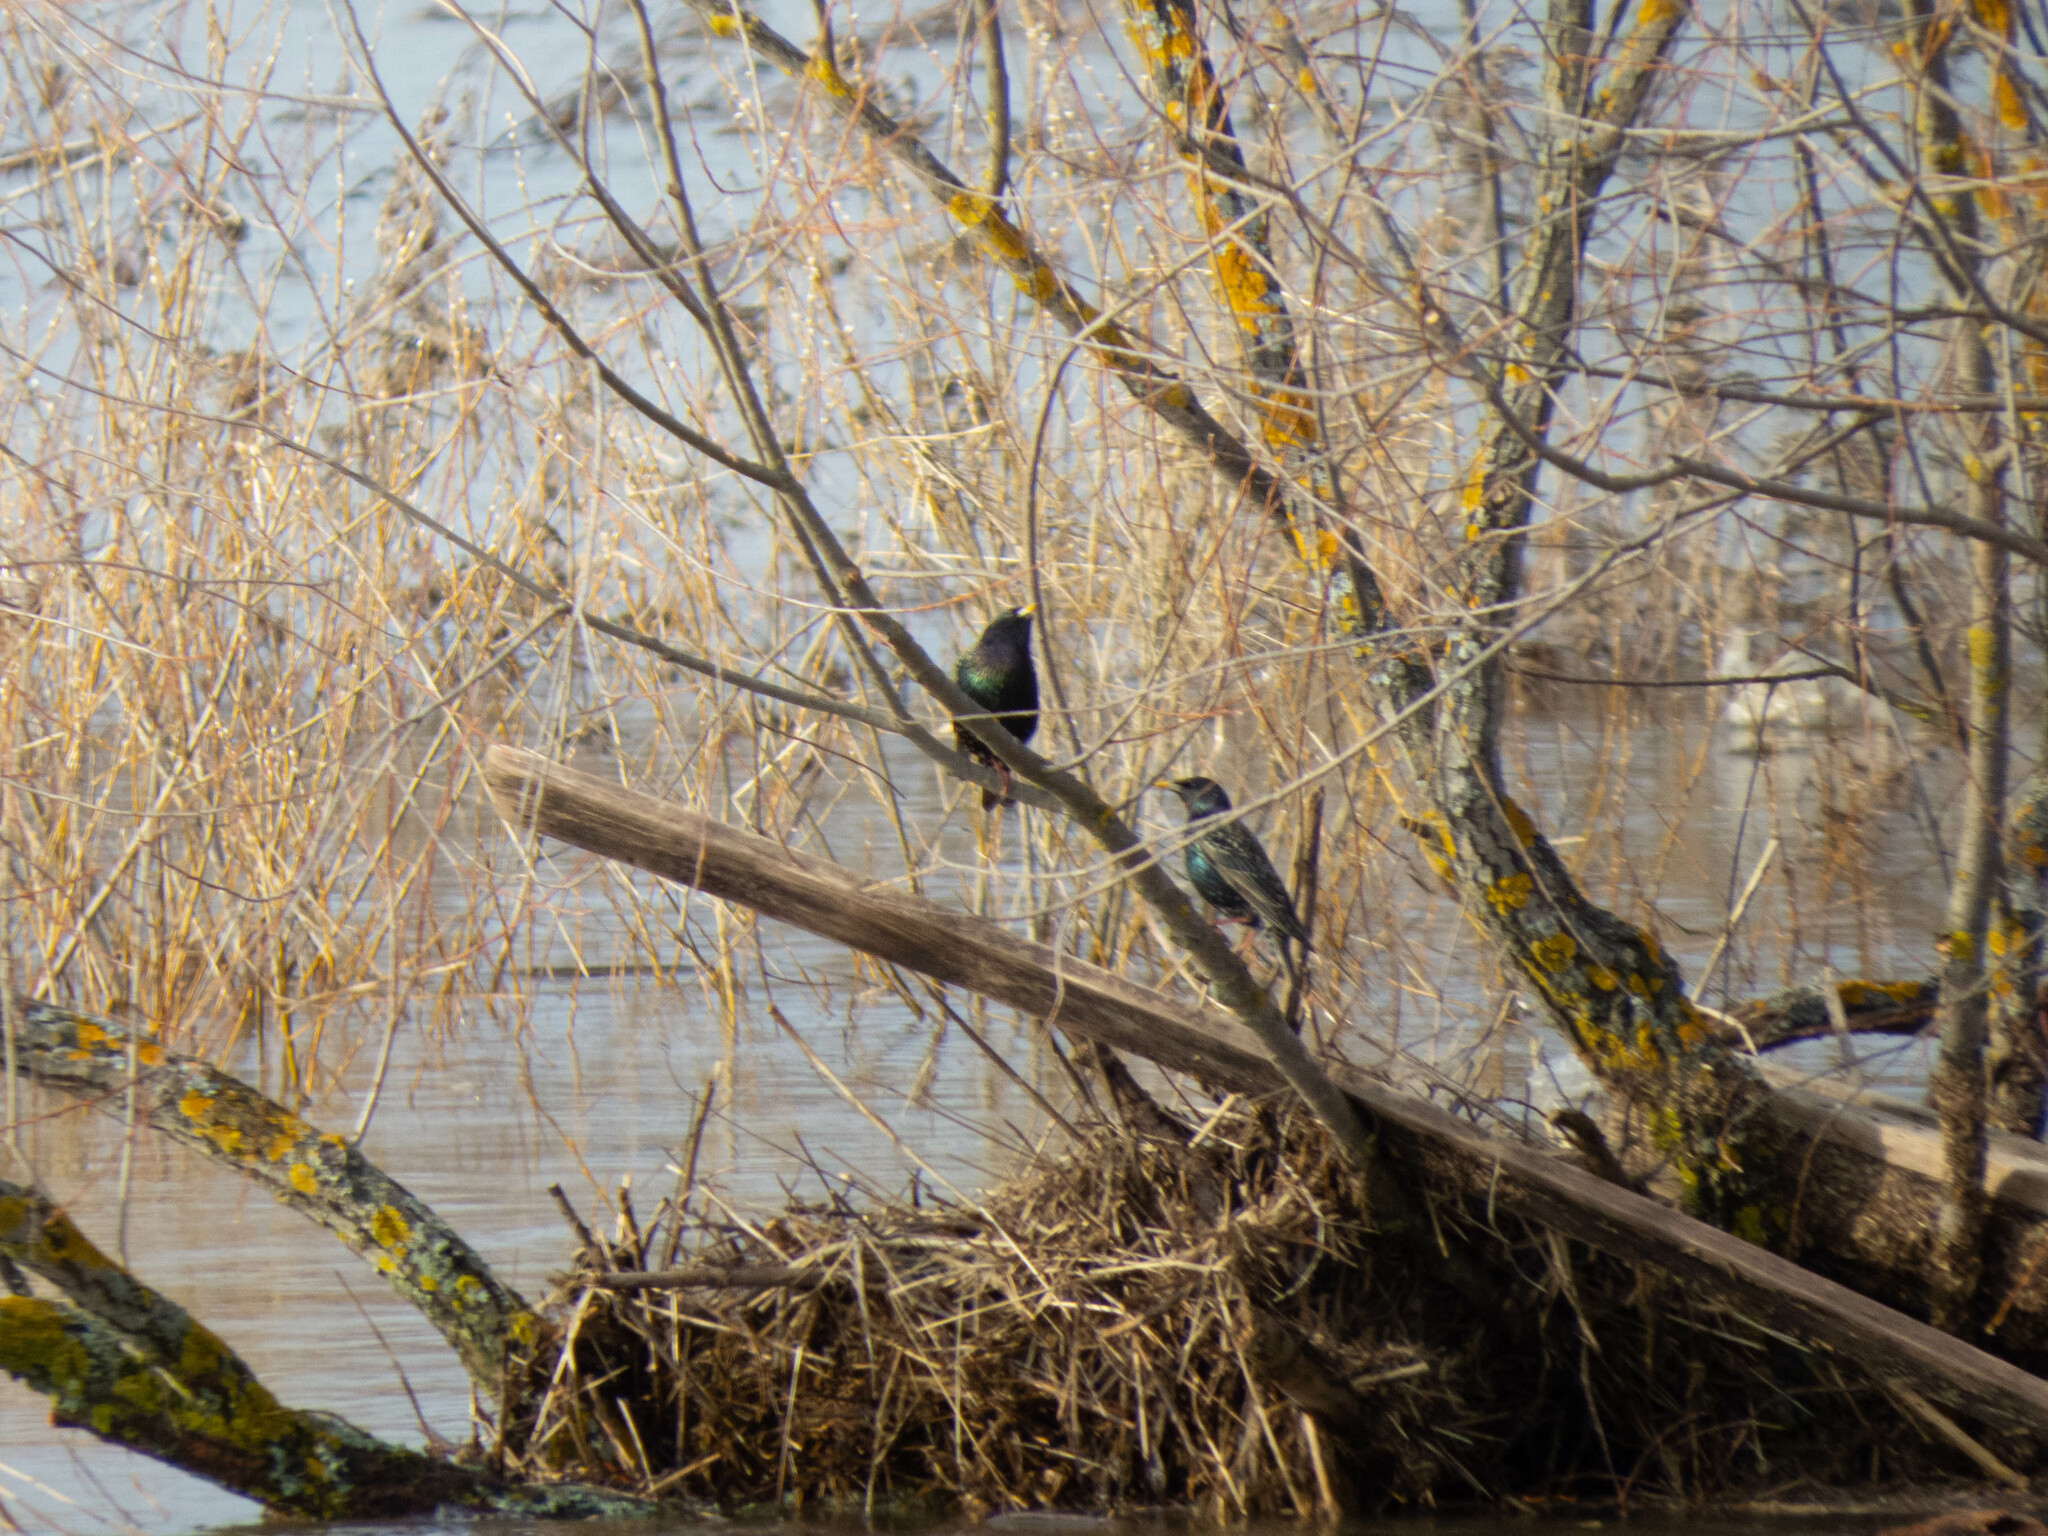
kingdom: Animalia
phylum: Chordata
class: Aves
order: Passeriformes
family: Sturnidae
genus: Sturnus
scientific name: Sturnus vulgaris
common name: Common starling
